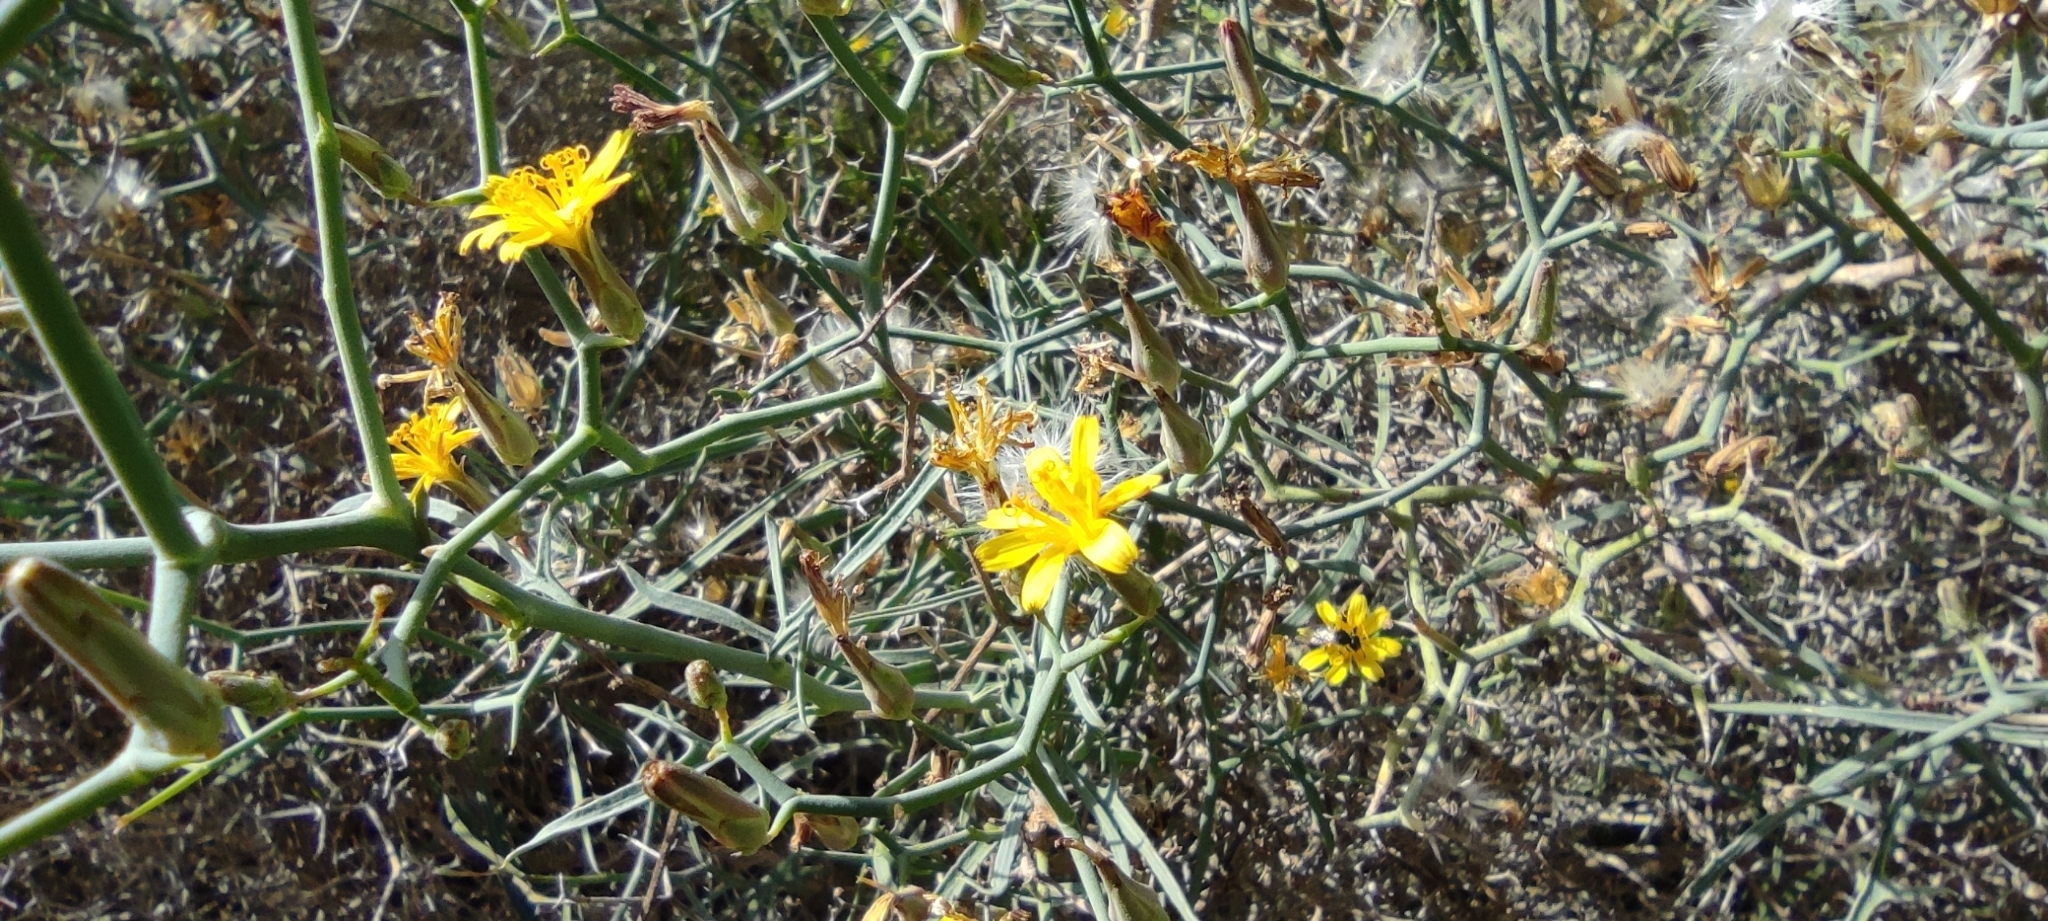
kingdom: Plantae
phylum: Tracheophyta
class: Magnoliopsida
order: Asterales
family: Asteraceae
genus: Launaea
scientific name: Launaea arborescens
